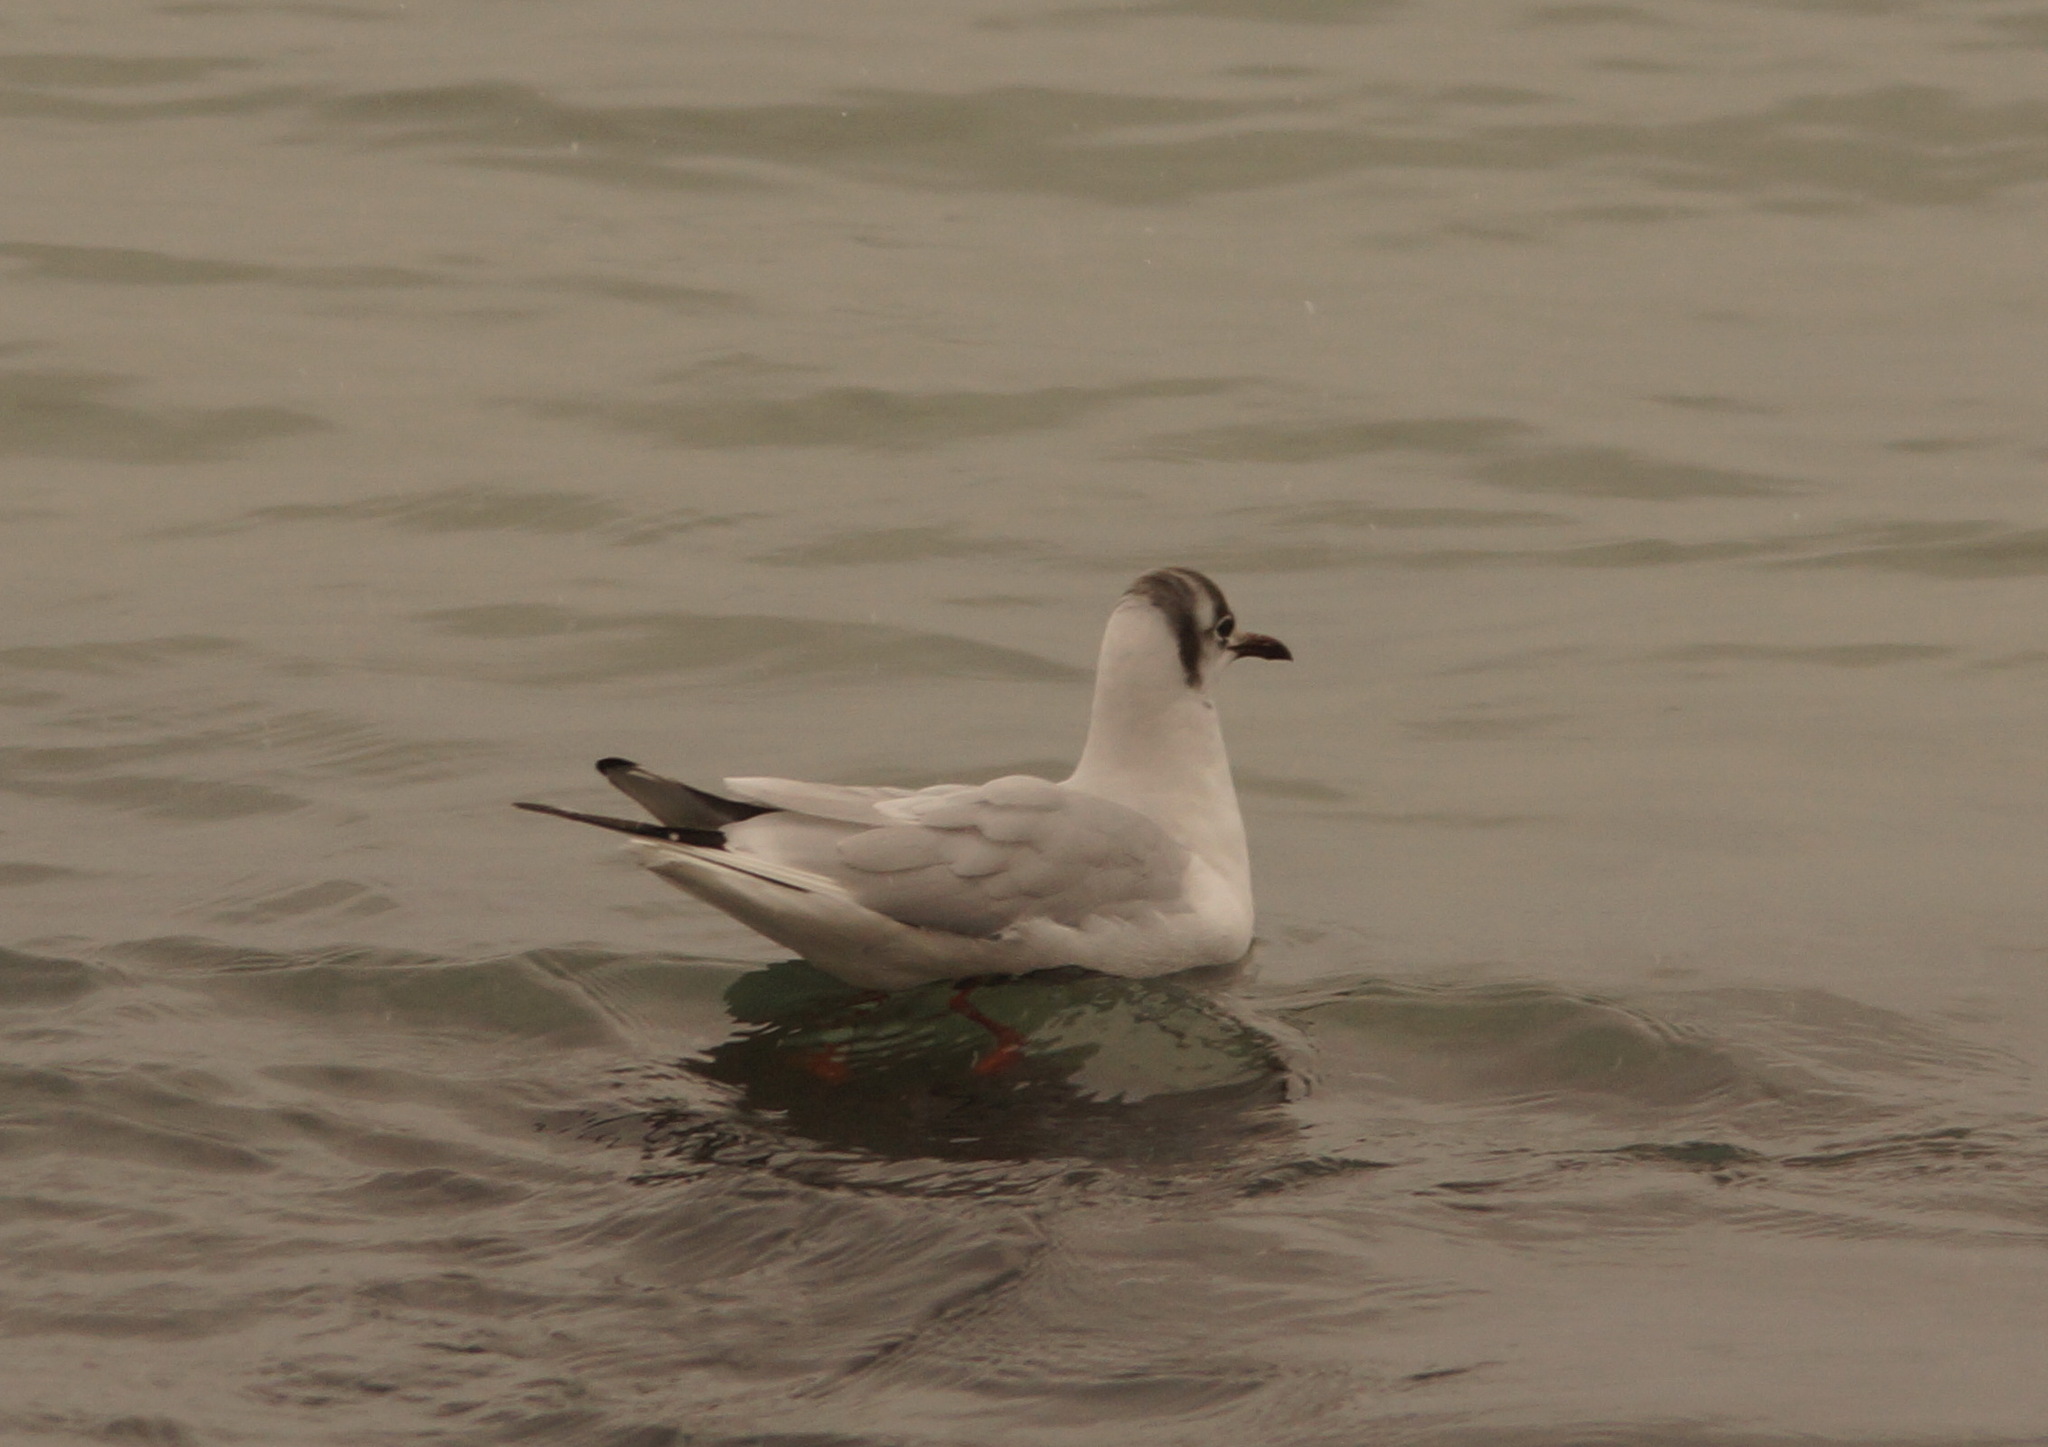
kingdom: Animalia
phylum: Chordata
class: Aves
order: Charadriiformes
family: Laridae
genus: Chroicocephalus
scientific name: Chroicocephalus ridibundus
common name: Black-headed gull
